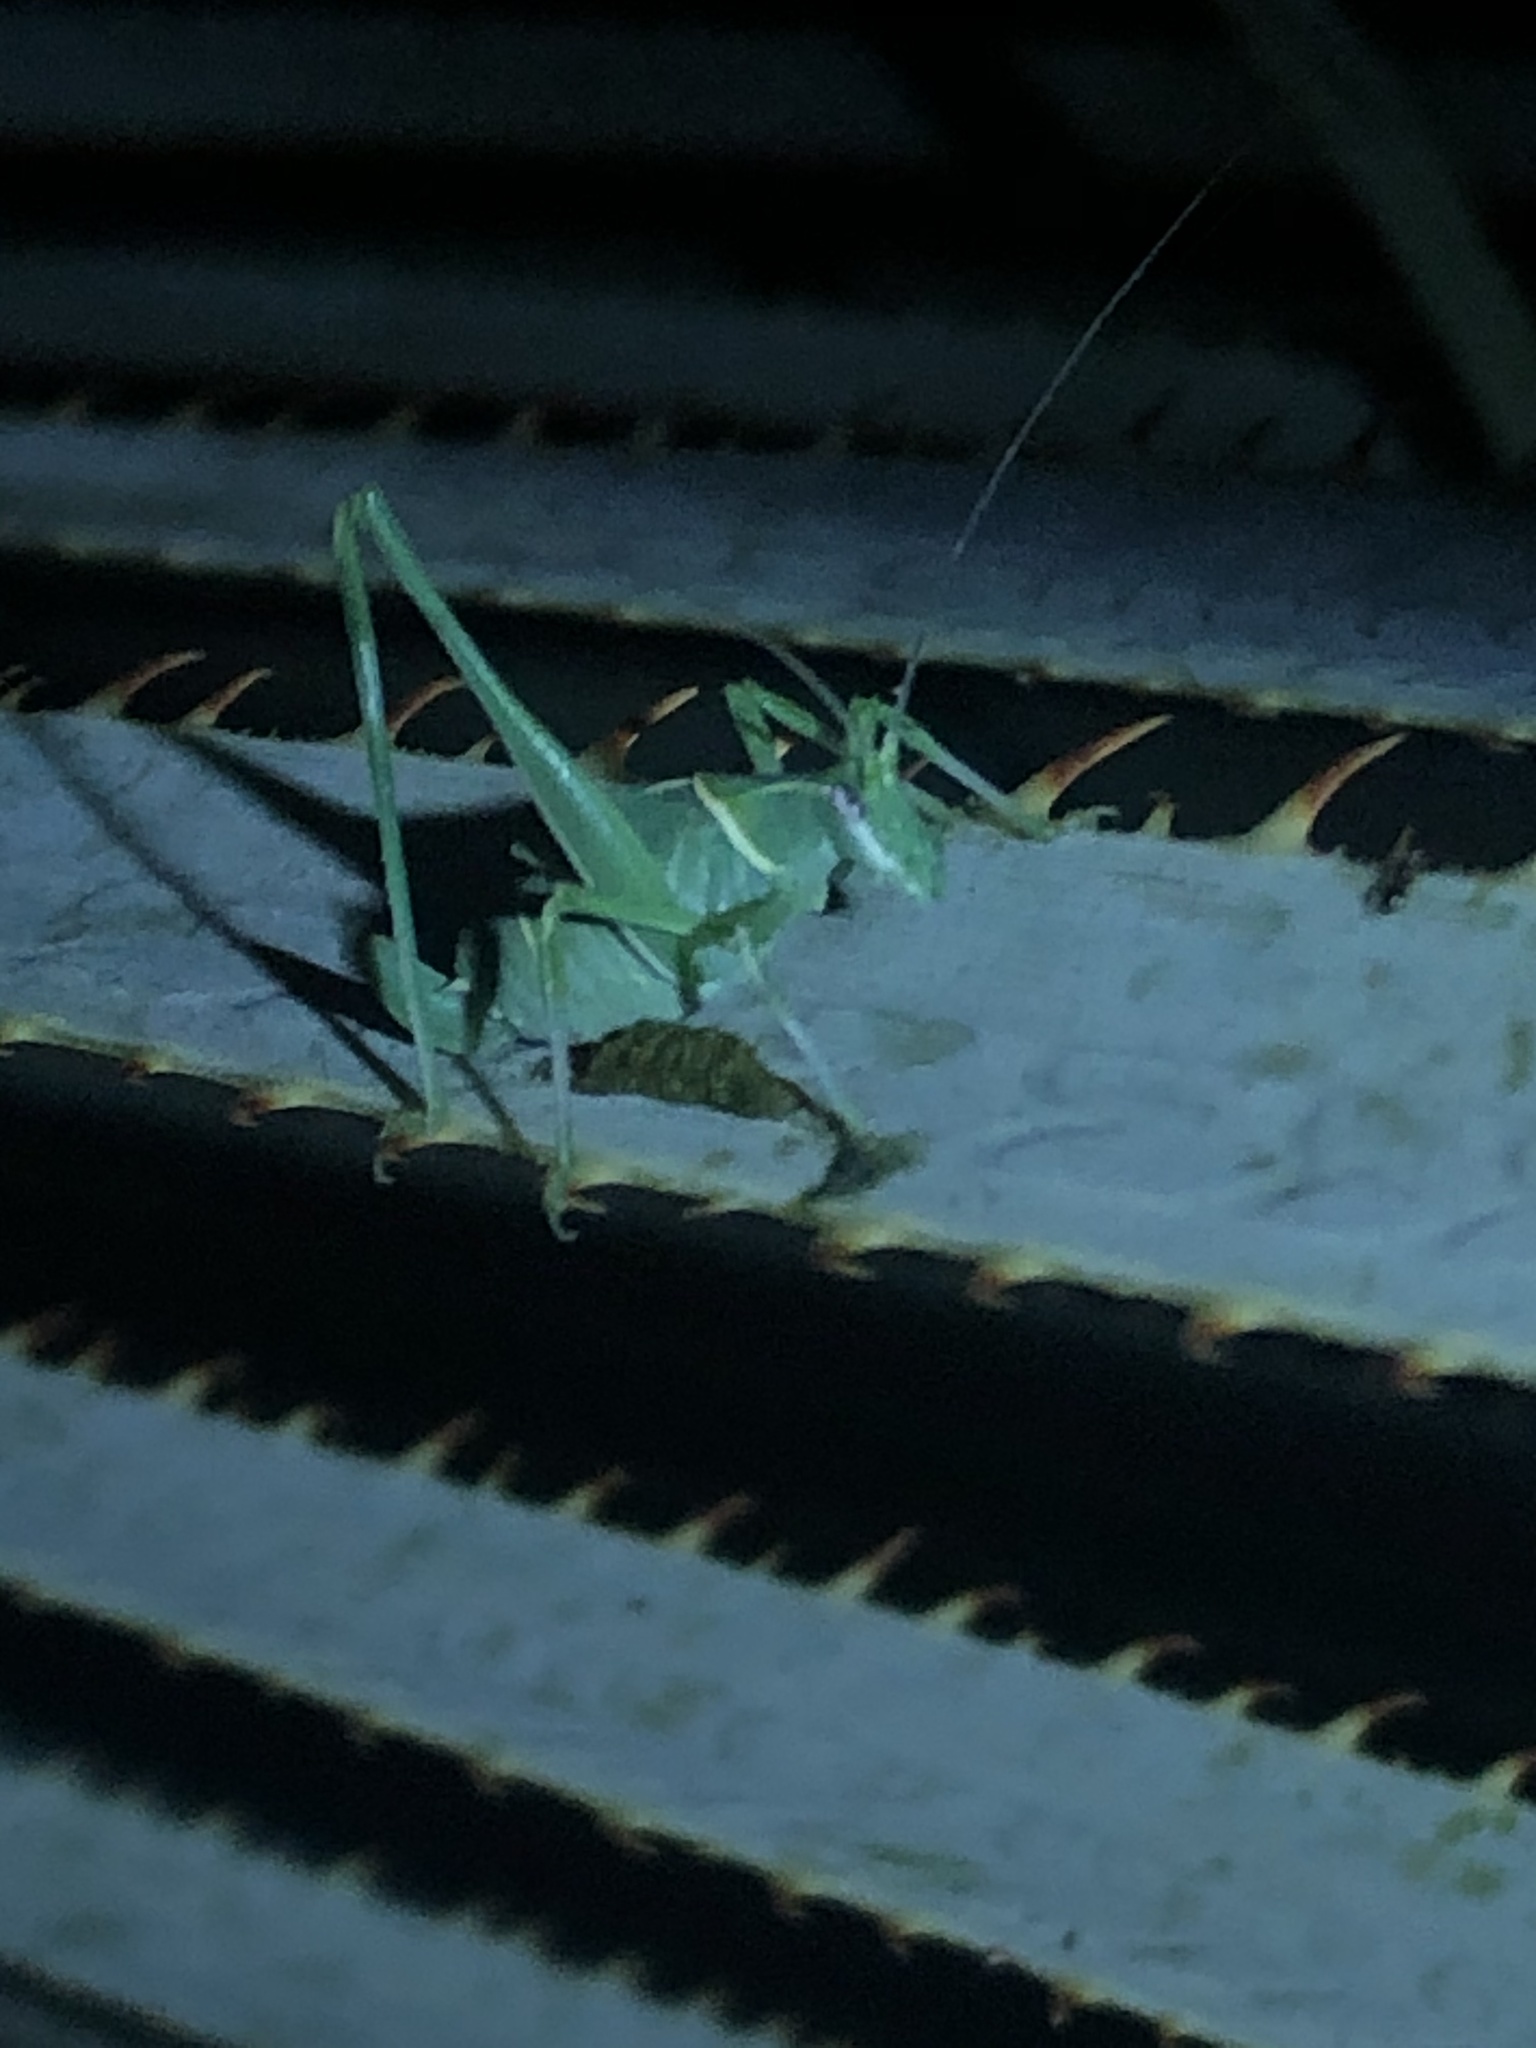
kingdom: Animalia
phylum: Arthropoda
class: Insecta
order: Orthoptera
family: Tettigoniidae
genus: Insara
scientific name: Insara elegans
